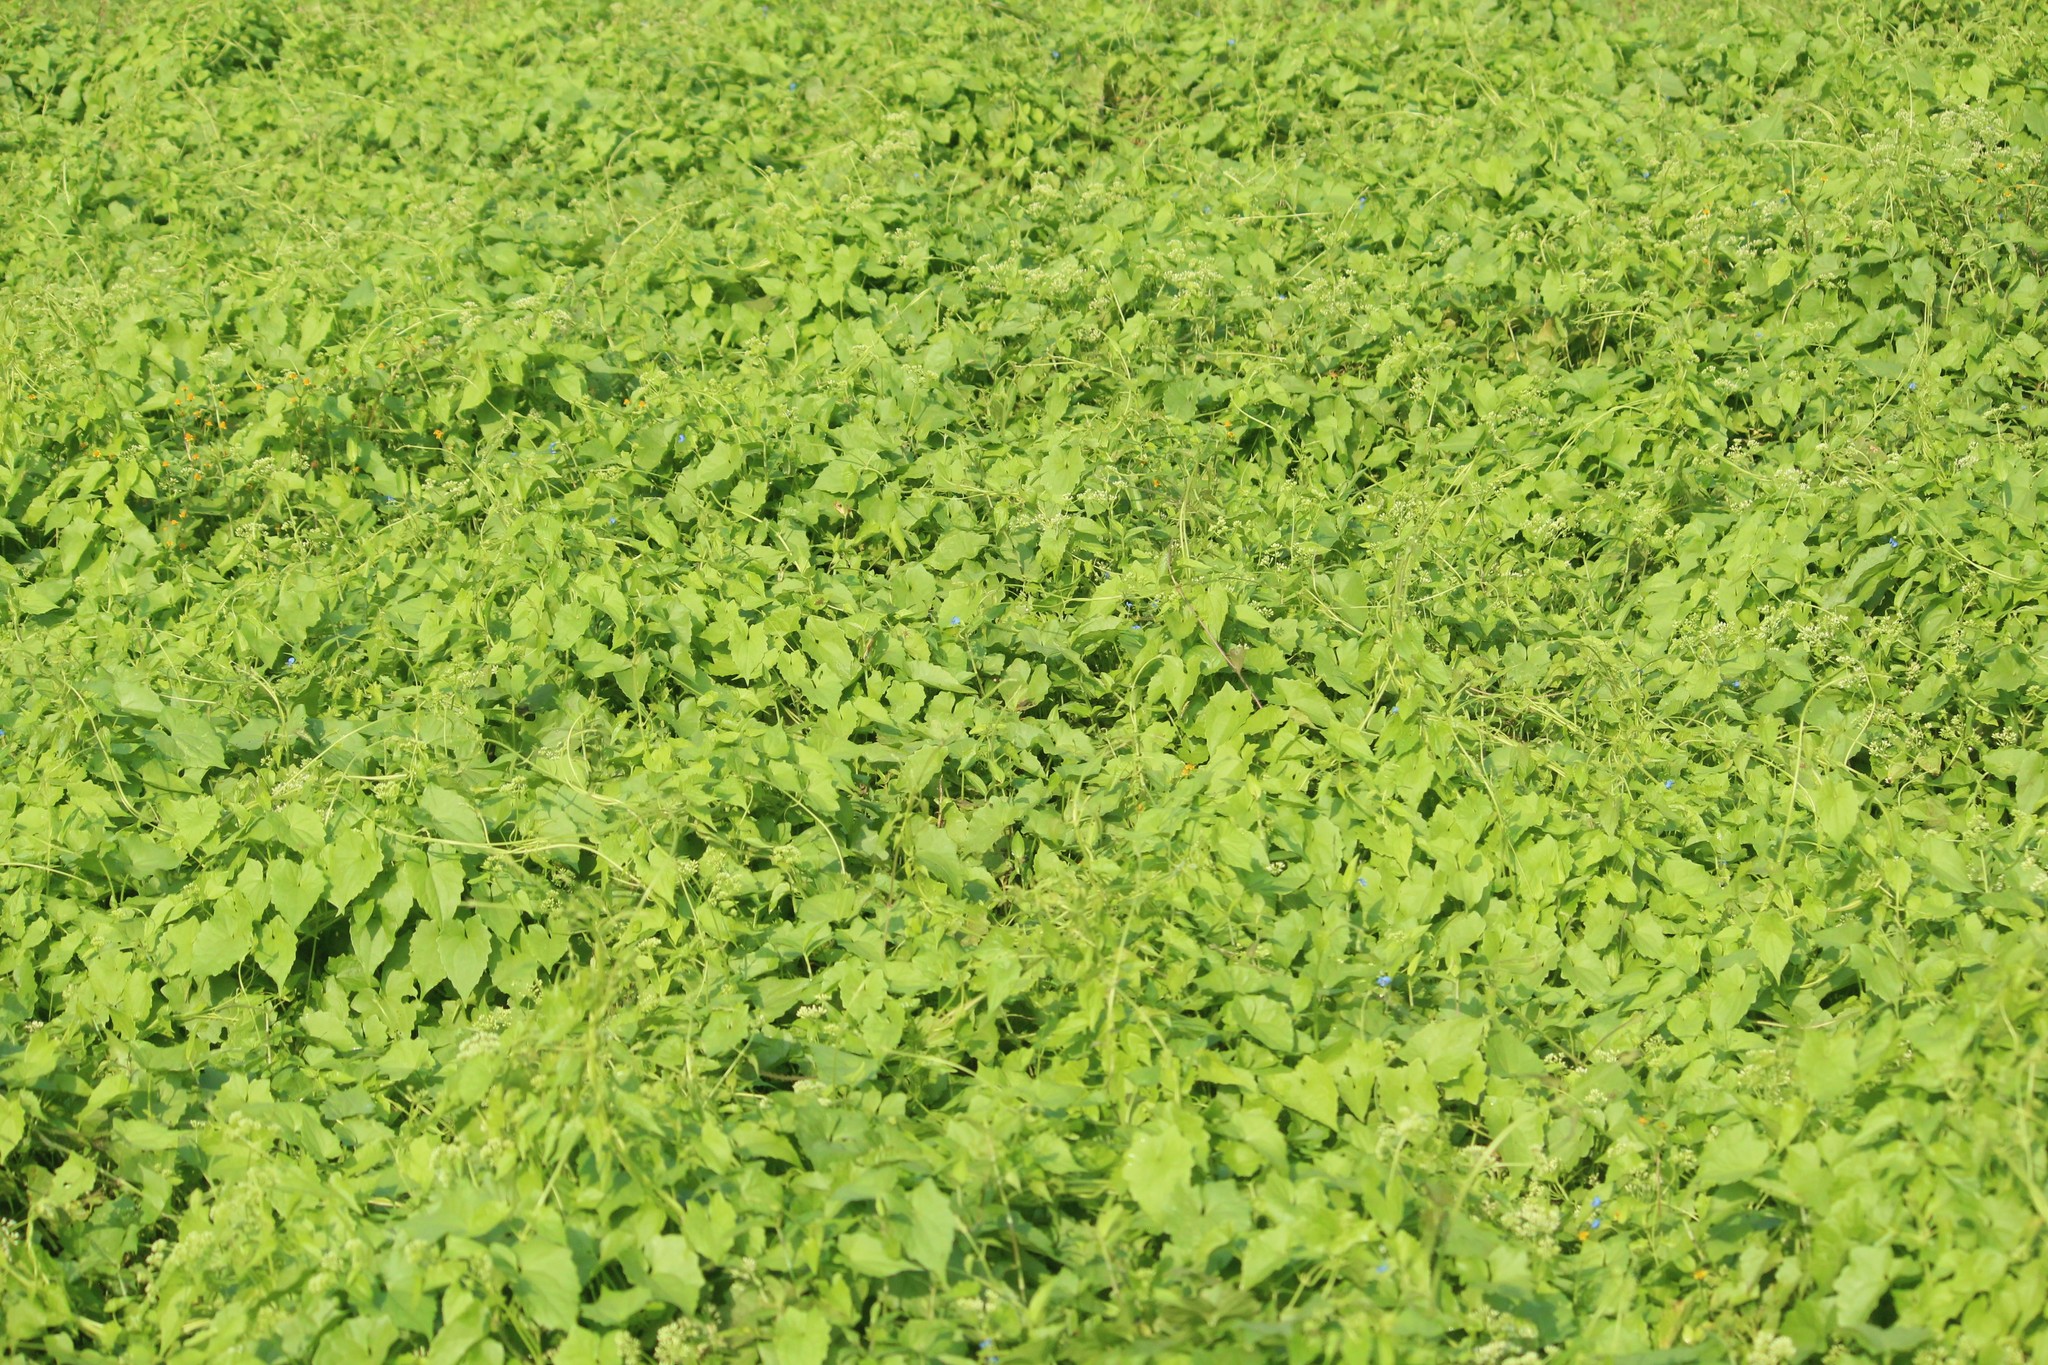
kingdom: Plantae
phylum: Tracheophyta
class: Magnoliopsida
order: Asterales
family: Asteraceae
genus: Mikania
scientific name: Mikania micrantha
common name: Mile-a-minute
